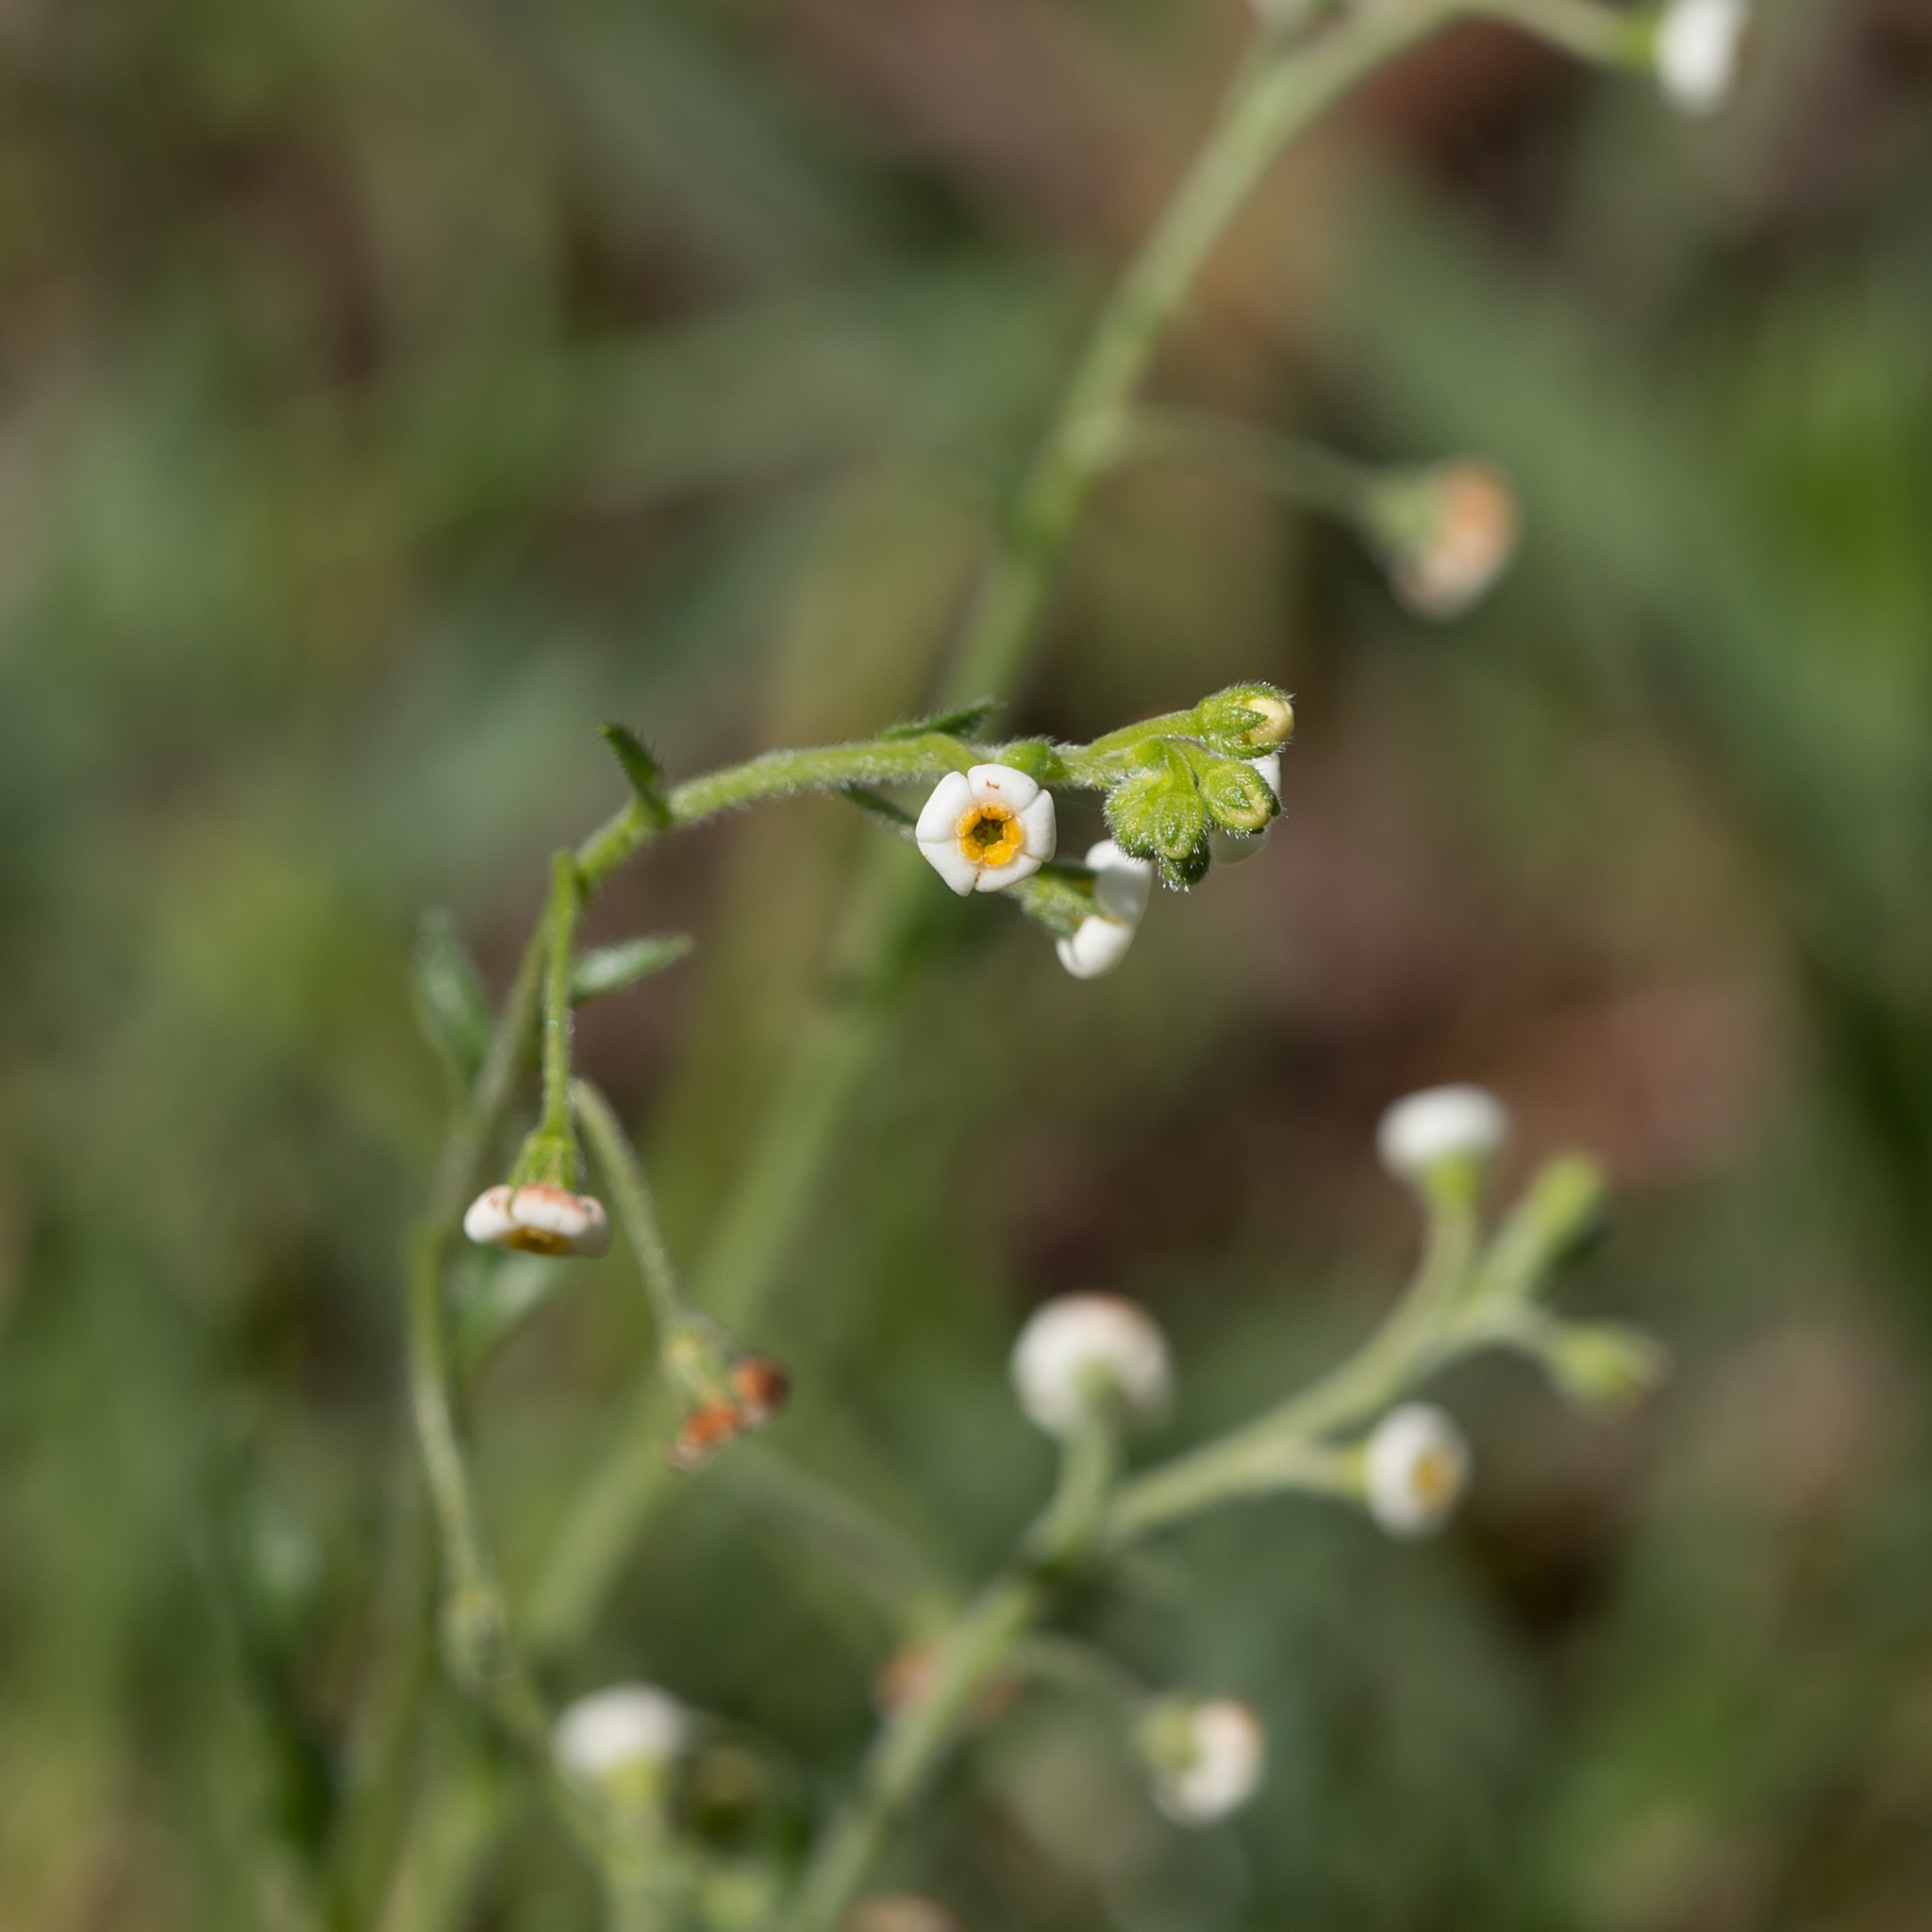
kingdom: Plantae
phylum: Tracheophyta
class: Magnoliopsida
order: Boraginales
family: Boraginaceae
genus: Hackelia
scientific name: Hackelia suaveolens
